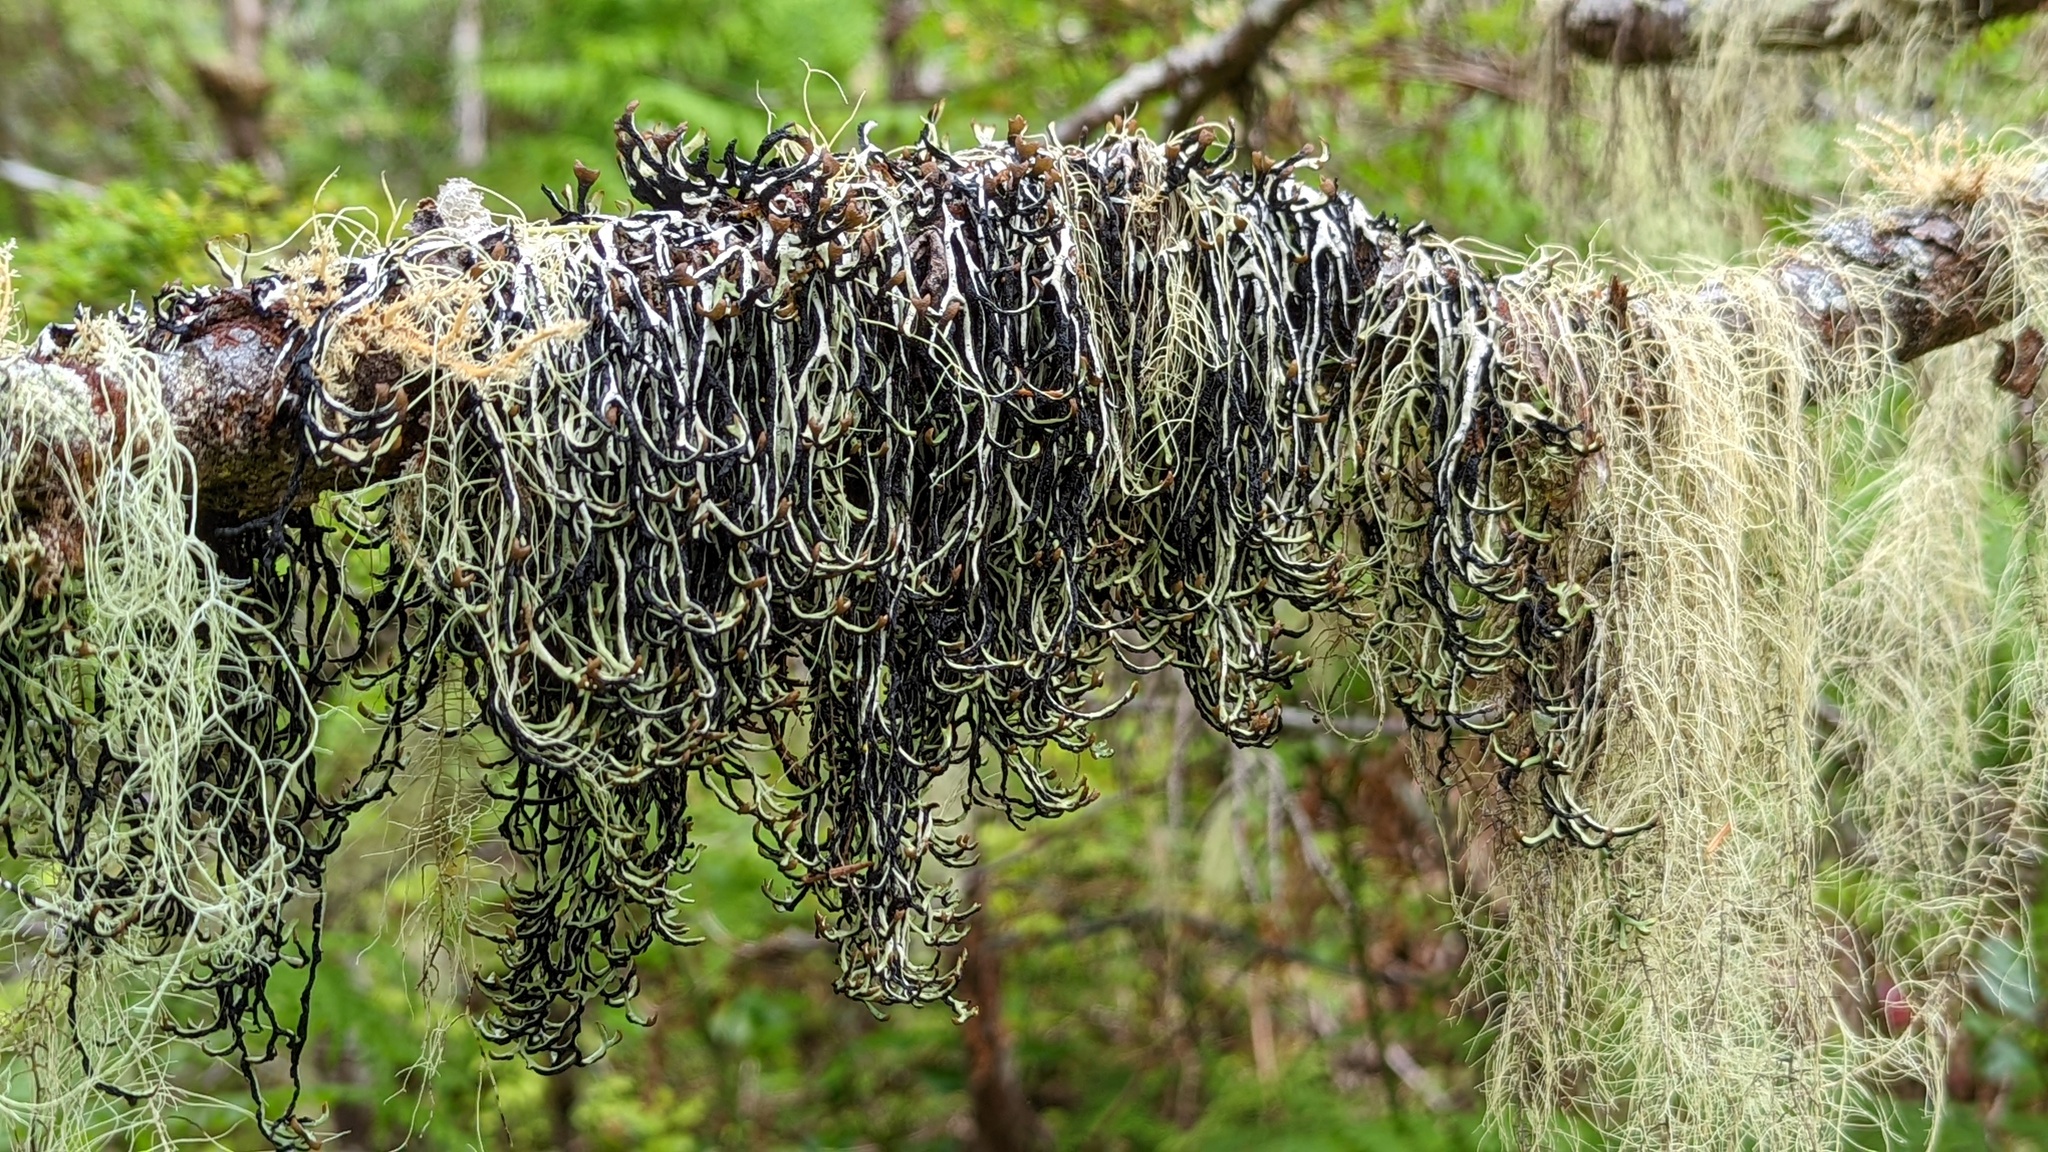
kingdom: Fungi
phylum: Ascomycota
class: Lecanoromycetes
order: Lecanorales
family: Parmeliaceae
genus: Hypogymnia
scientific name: Hypogymnia duplicata
